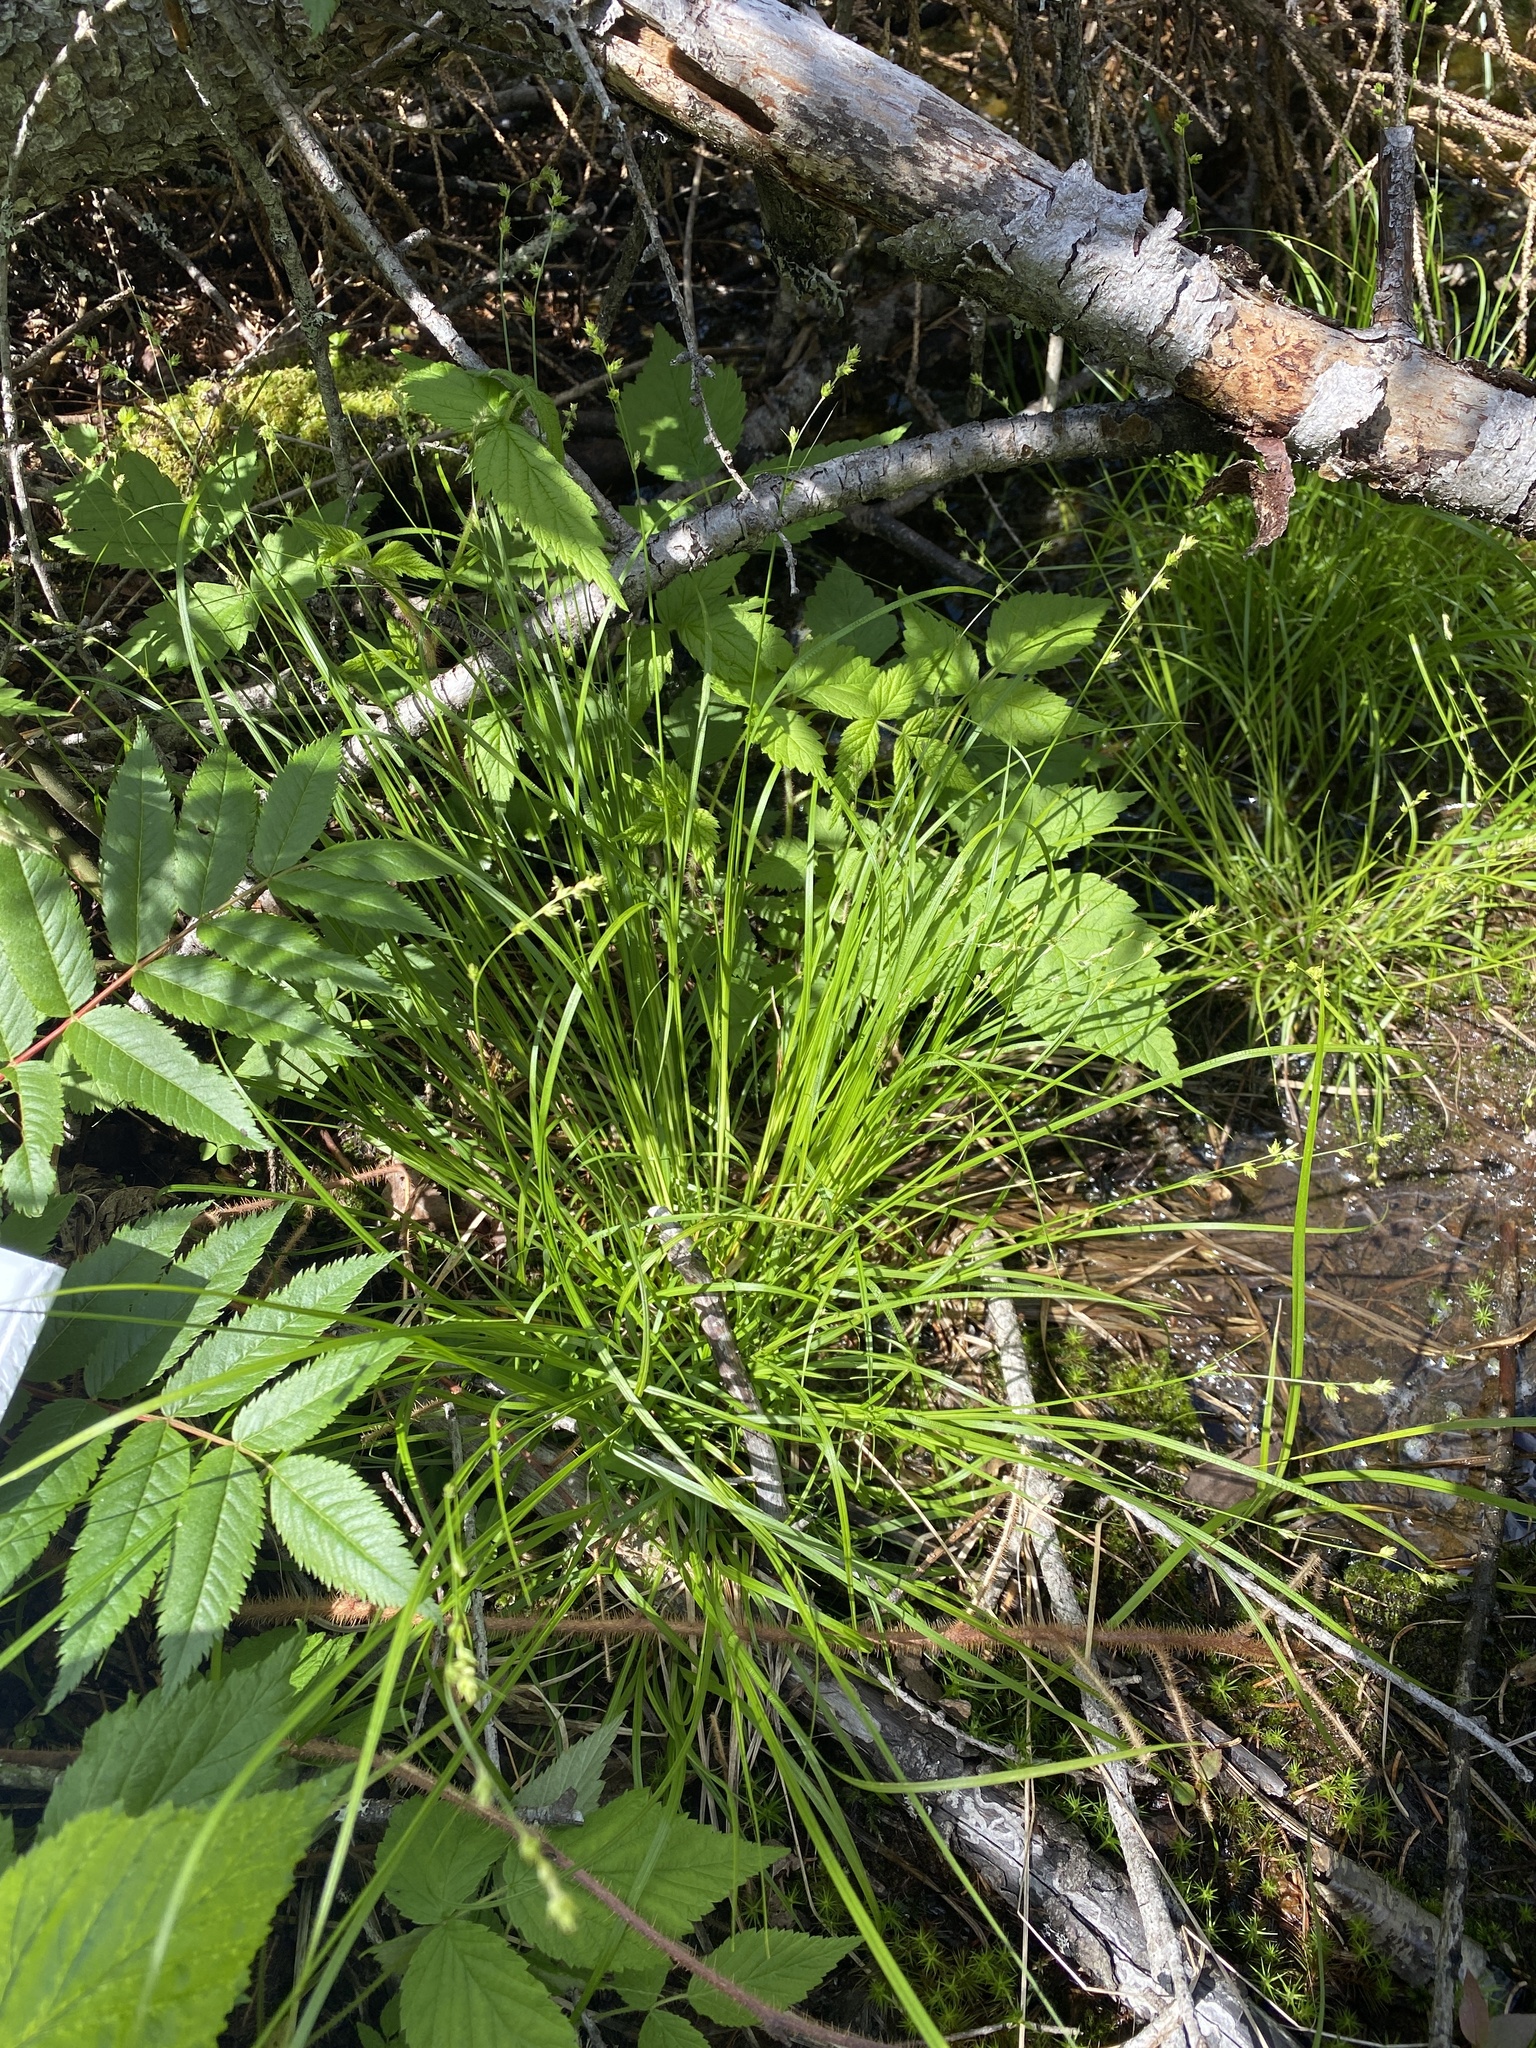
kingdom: Plantae
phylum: Tracheophyta
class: Liliopsida
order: Poales
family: Cyperaceae
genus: Carex
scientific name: Carex brunnescens
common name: Brown sedge
